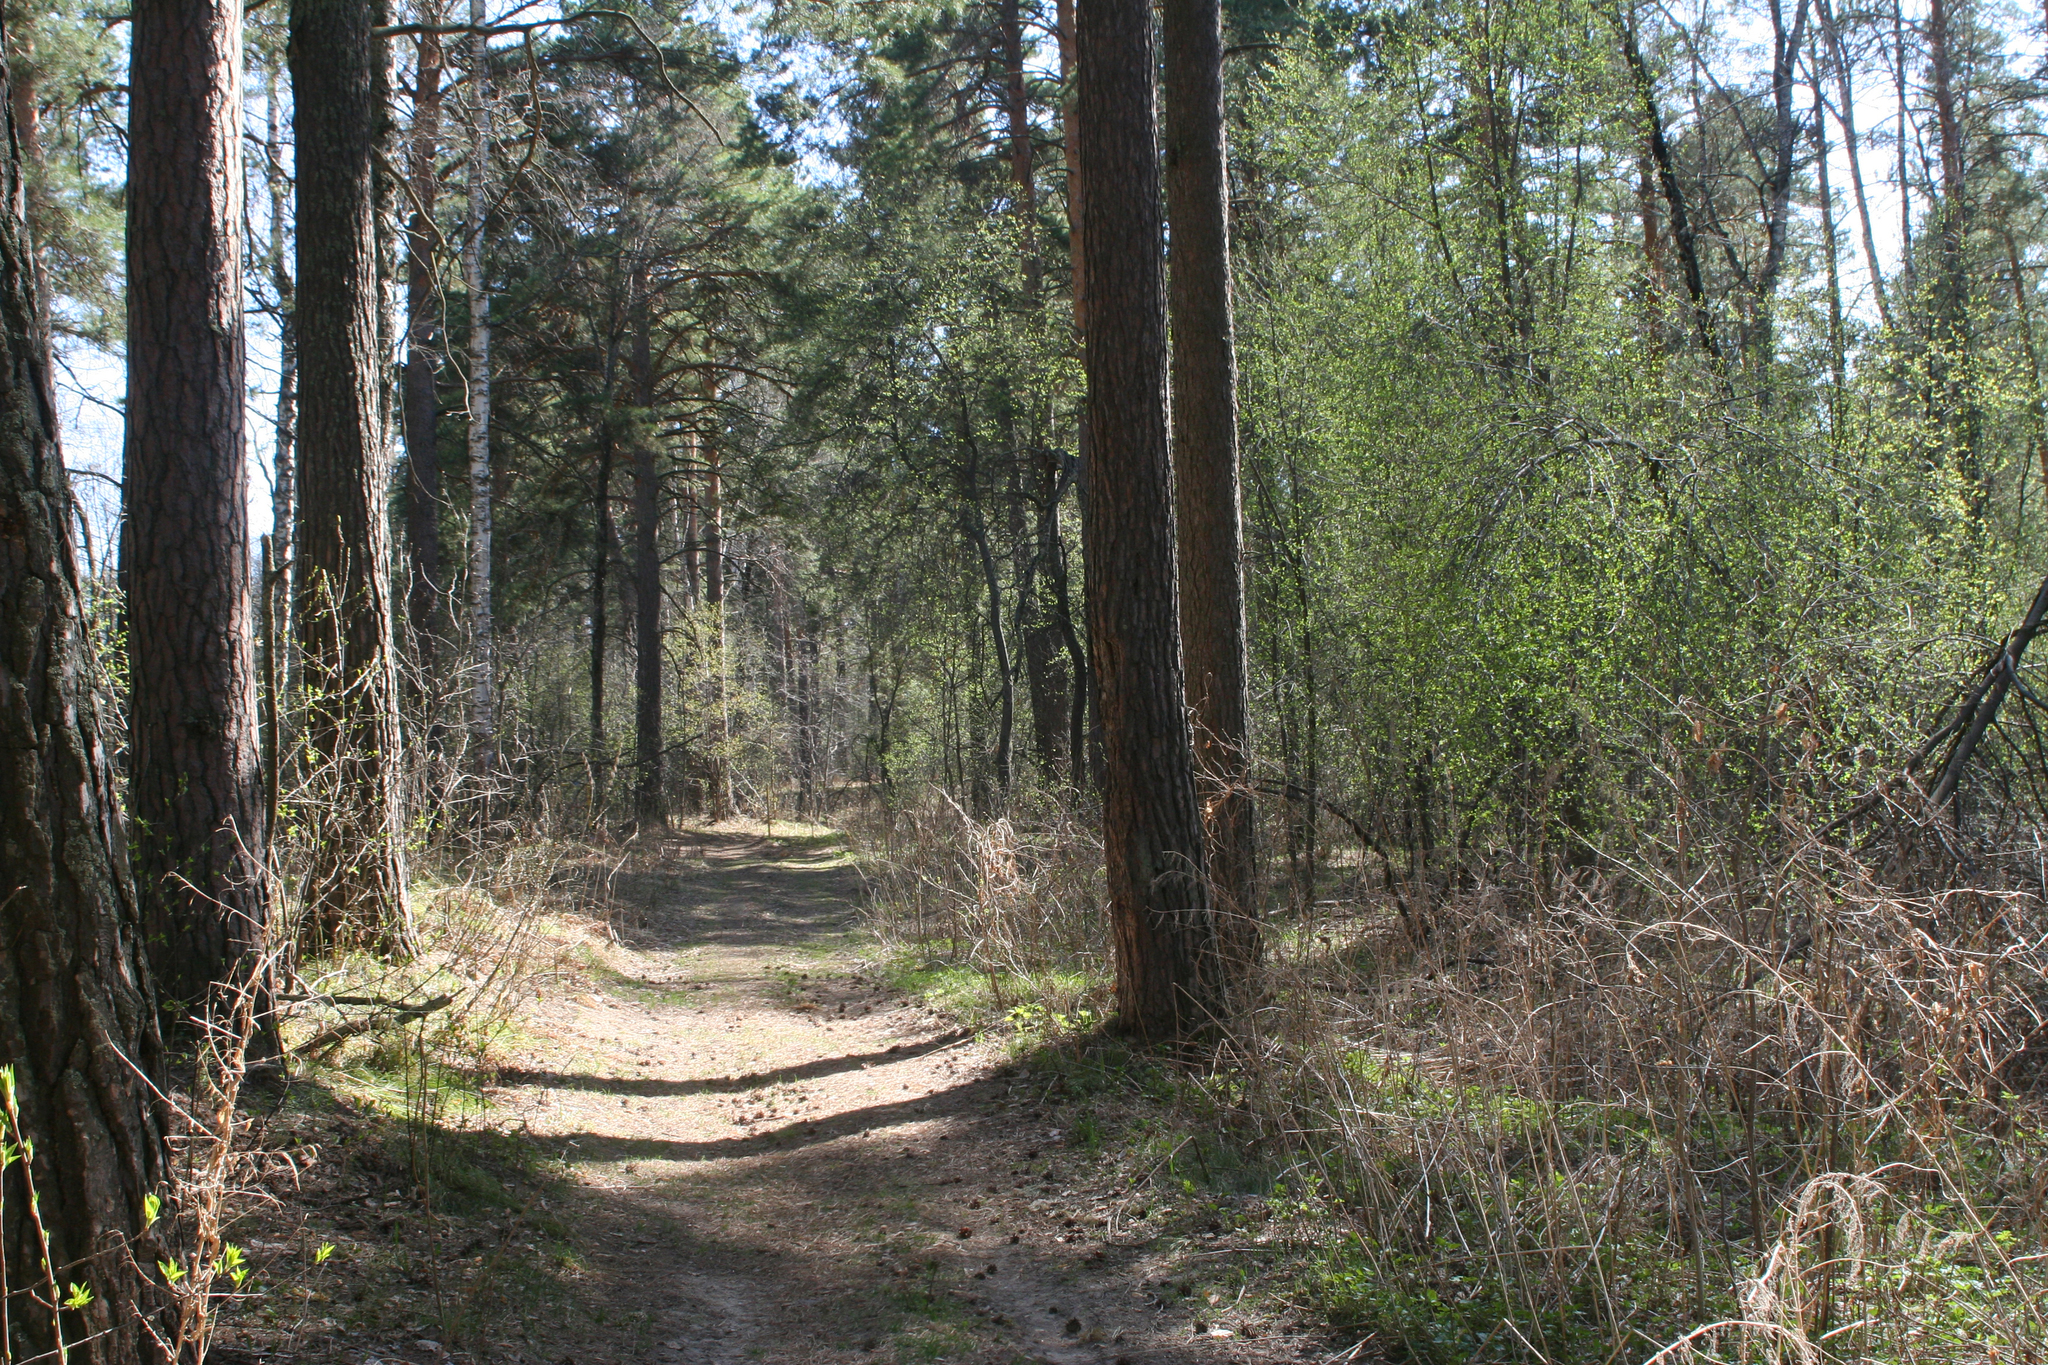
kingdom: Plantae
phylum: Tracheophyta
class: Pinopsida
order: Pinales
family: Pinaceae
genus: Pinus
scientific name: Pinus sylvestris
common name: Scots pine
